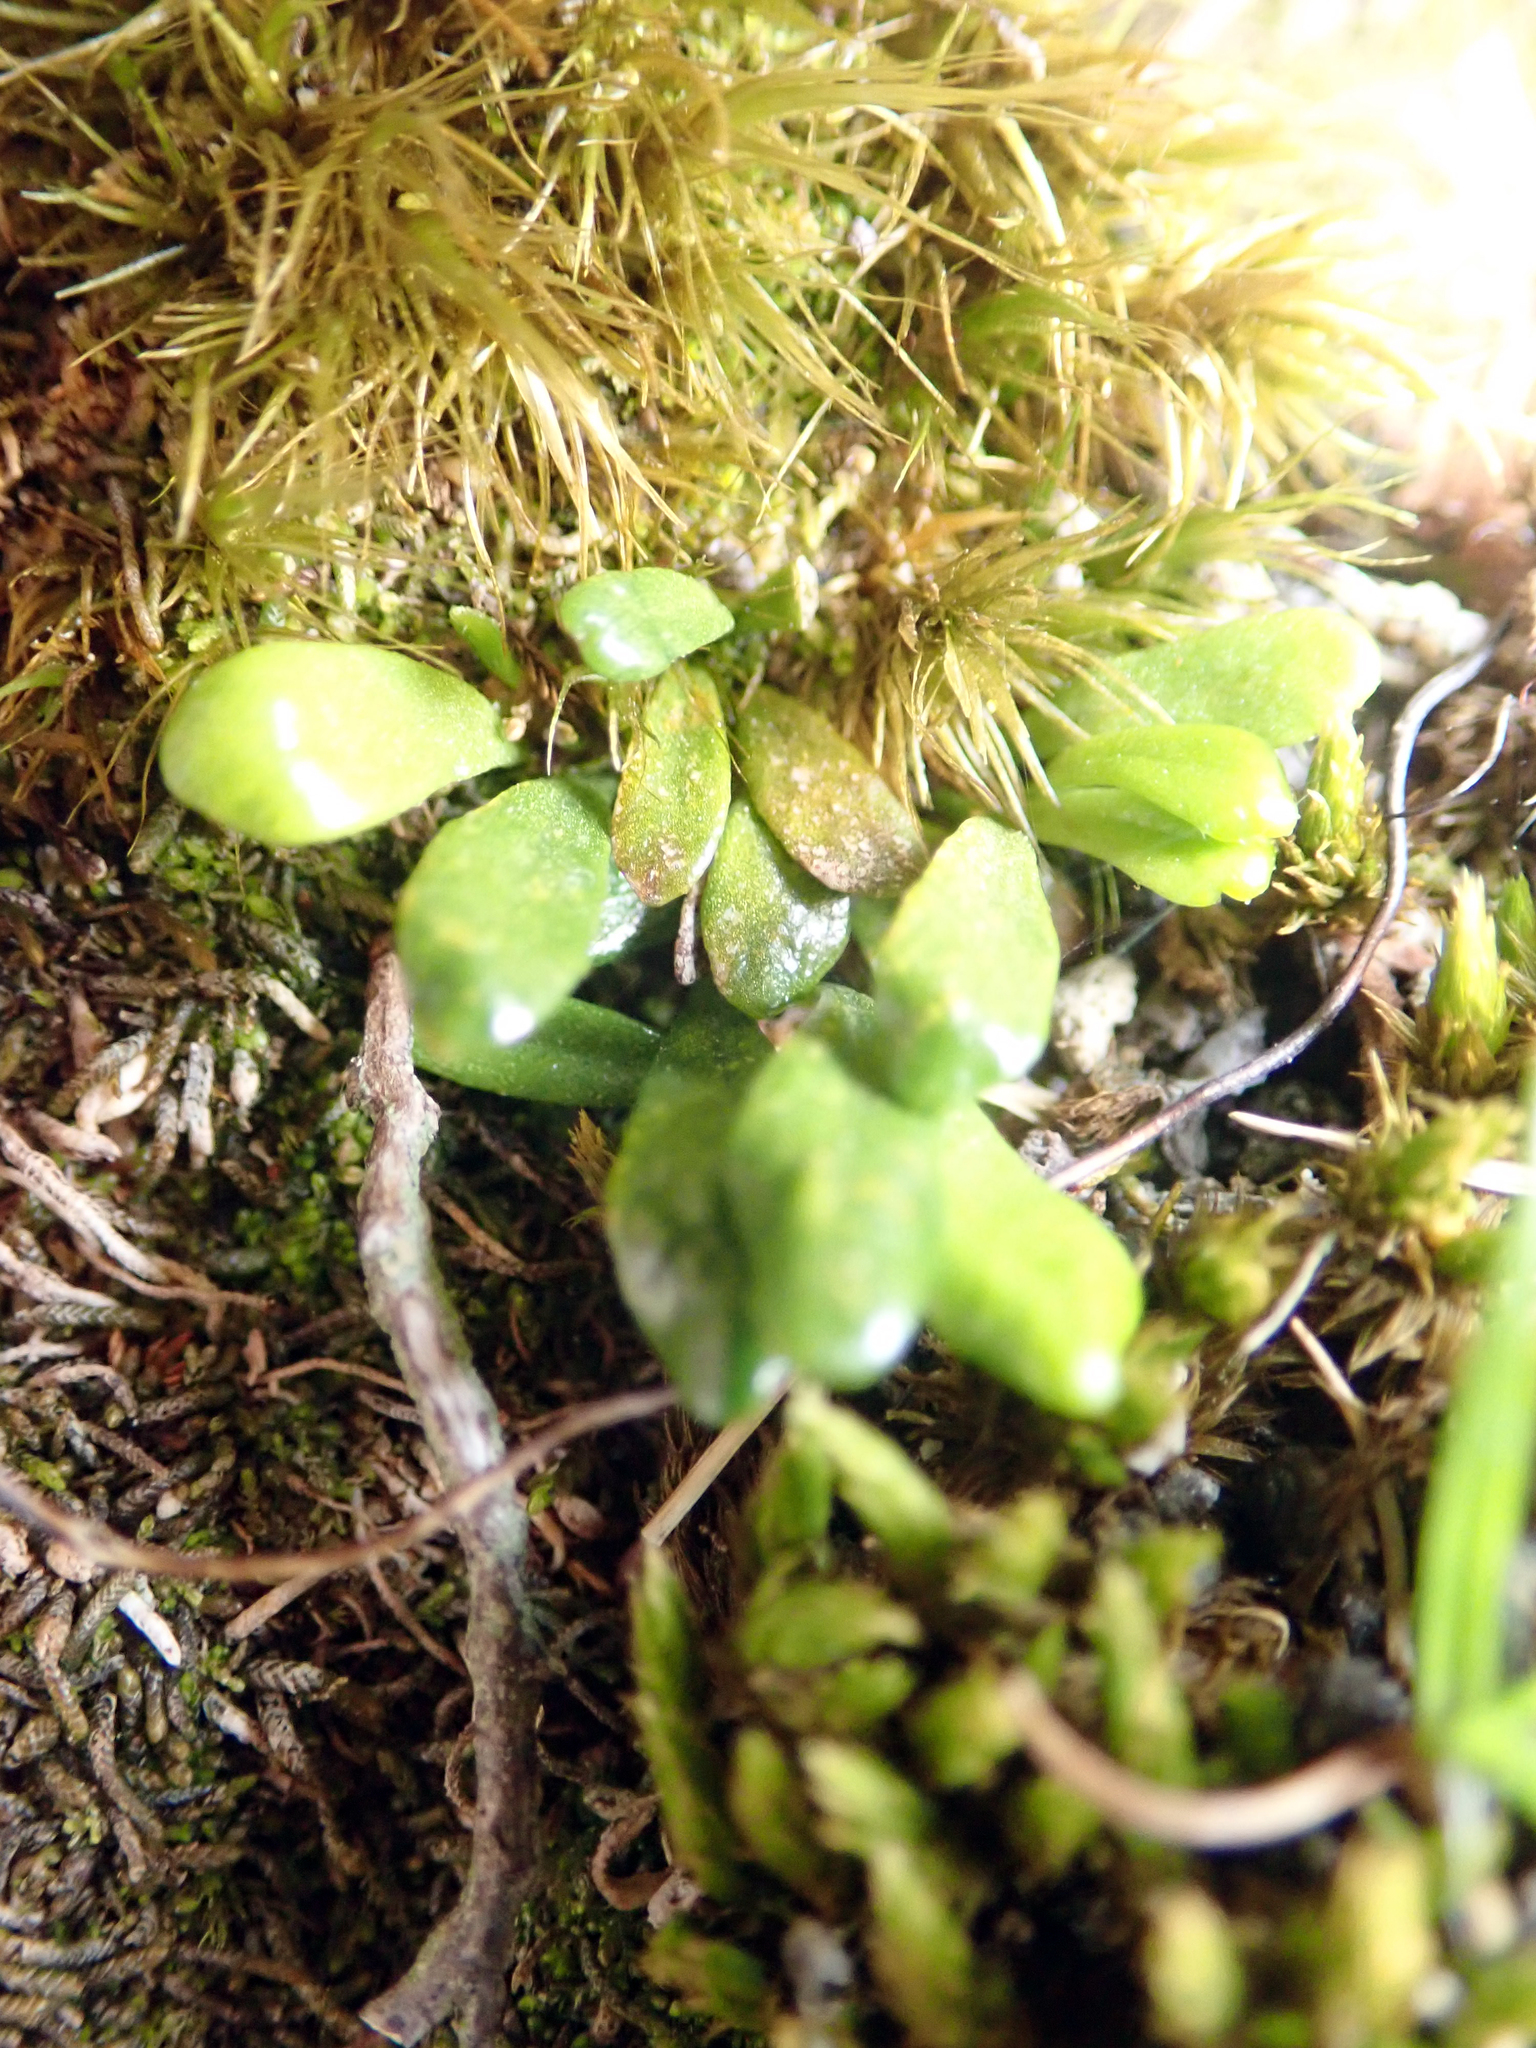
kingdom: Plantae
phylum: Tracheophyta
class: Polypodiopsida
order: Polypodiales
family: Polypodiaceae
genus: Notogrammitis
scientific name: Notogrammitis crassior
